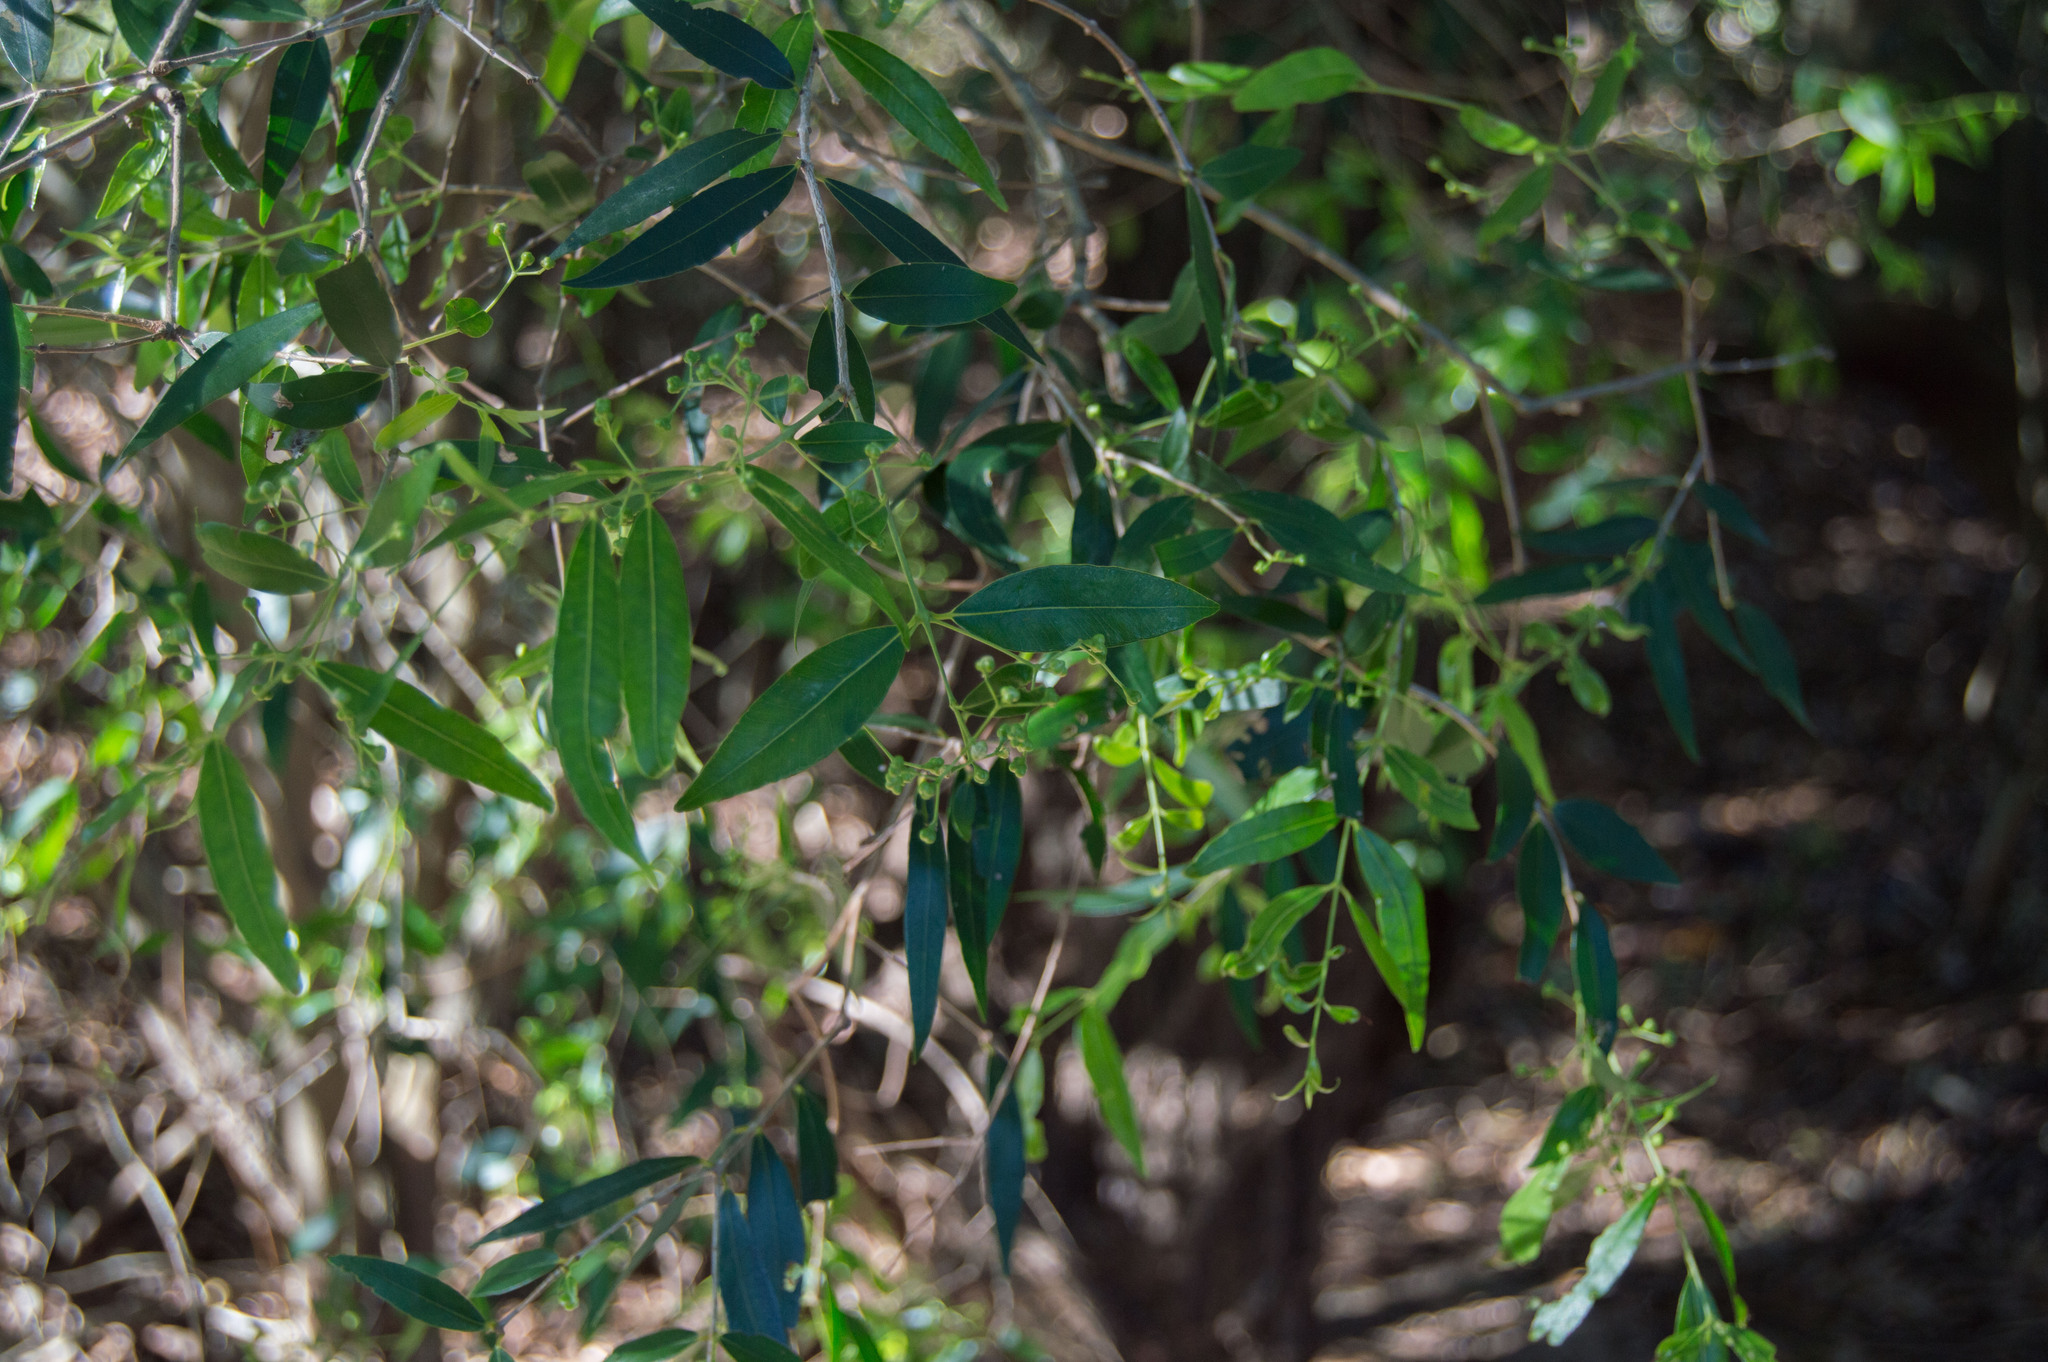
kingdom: Plantae
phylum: Tracheophyta
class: Magnoliopsida
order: Myrtales
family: Myrtaceae
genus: Blepharocalyx
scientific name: Blepharocalyx salicifolius
